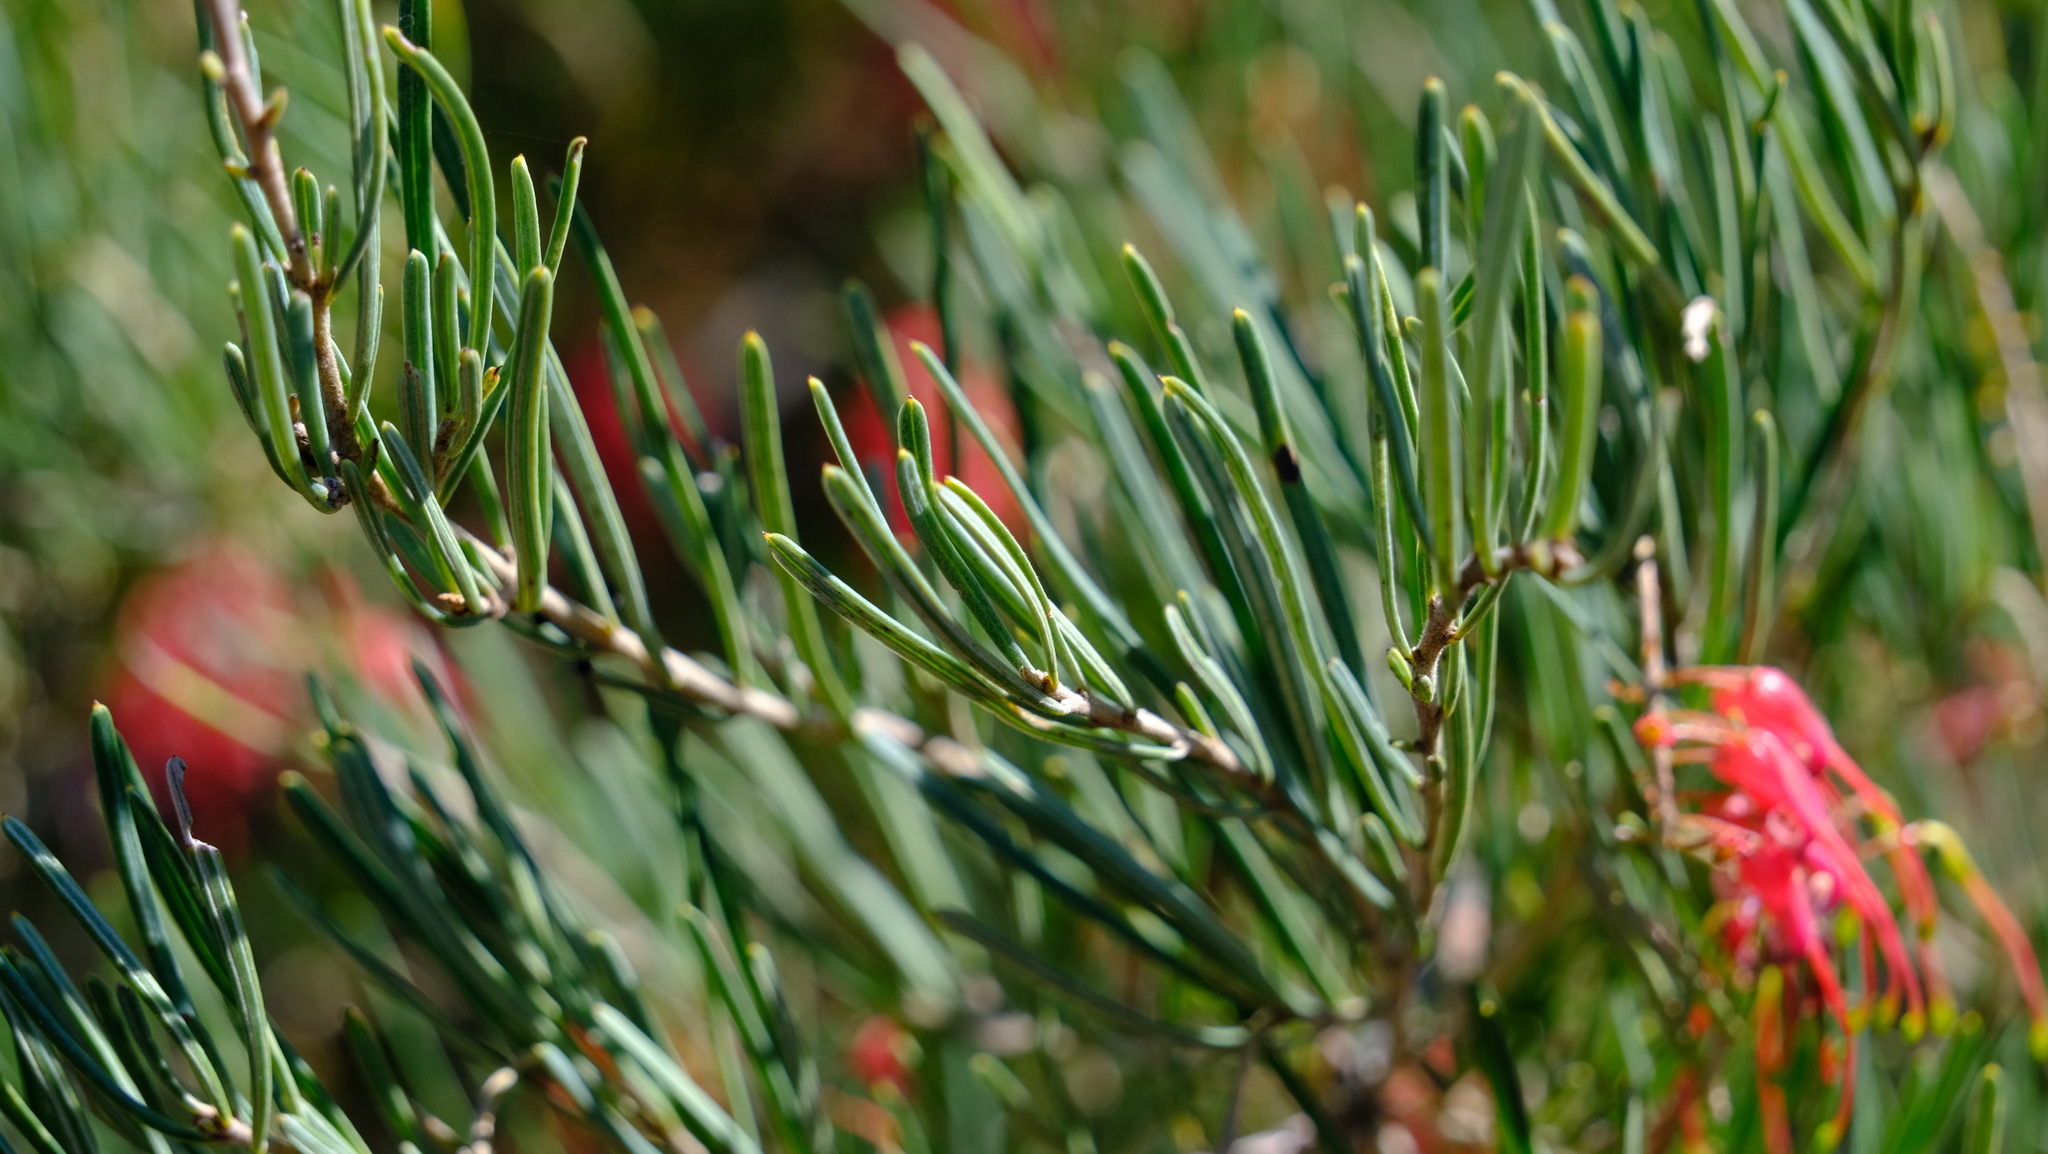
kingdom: Plantae
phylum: Tracheophyta
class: Magnoliopsida
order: Proteales
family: Proteaceae
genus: Grevillea
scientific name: Grevillea pinaster
